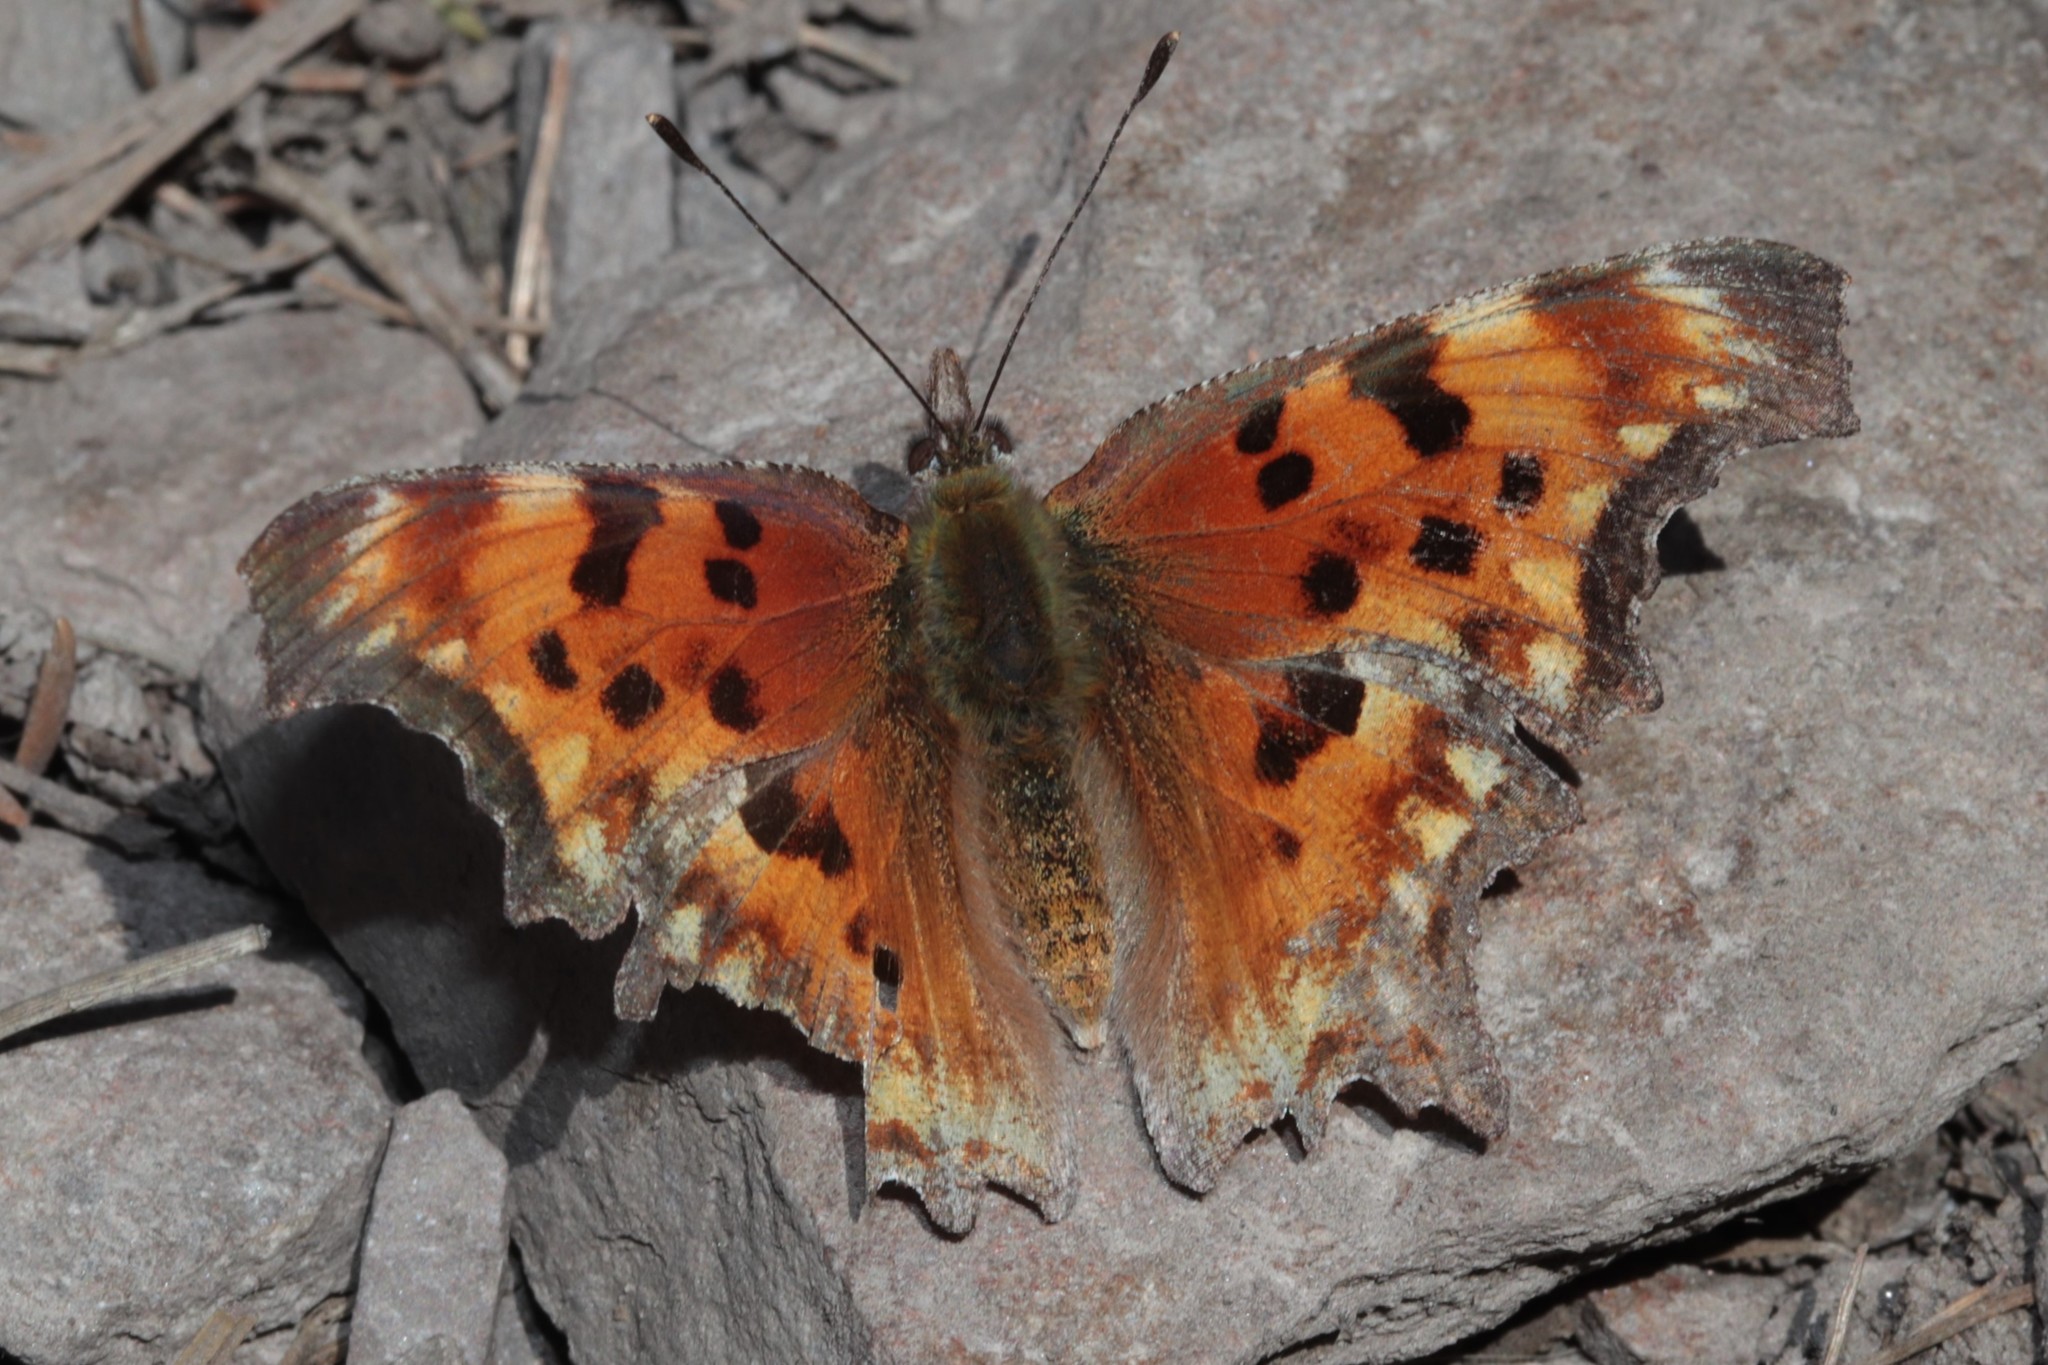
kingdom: Animalia
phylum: Arthropoda
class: Insecta
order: Lepidoptera
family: Nymphalidae
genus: Polygonia
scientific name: Polygonia gracilis
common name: Hoary comma
